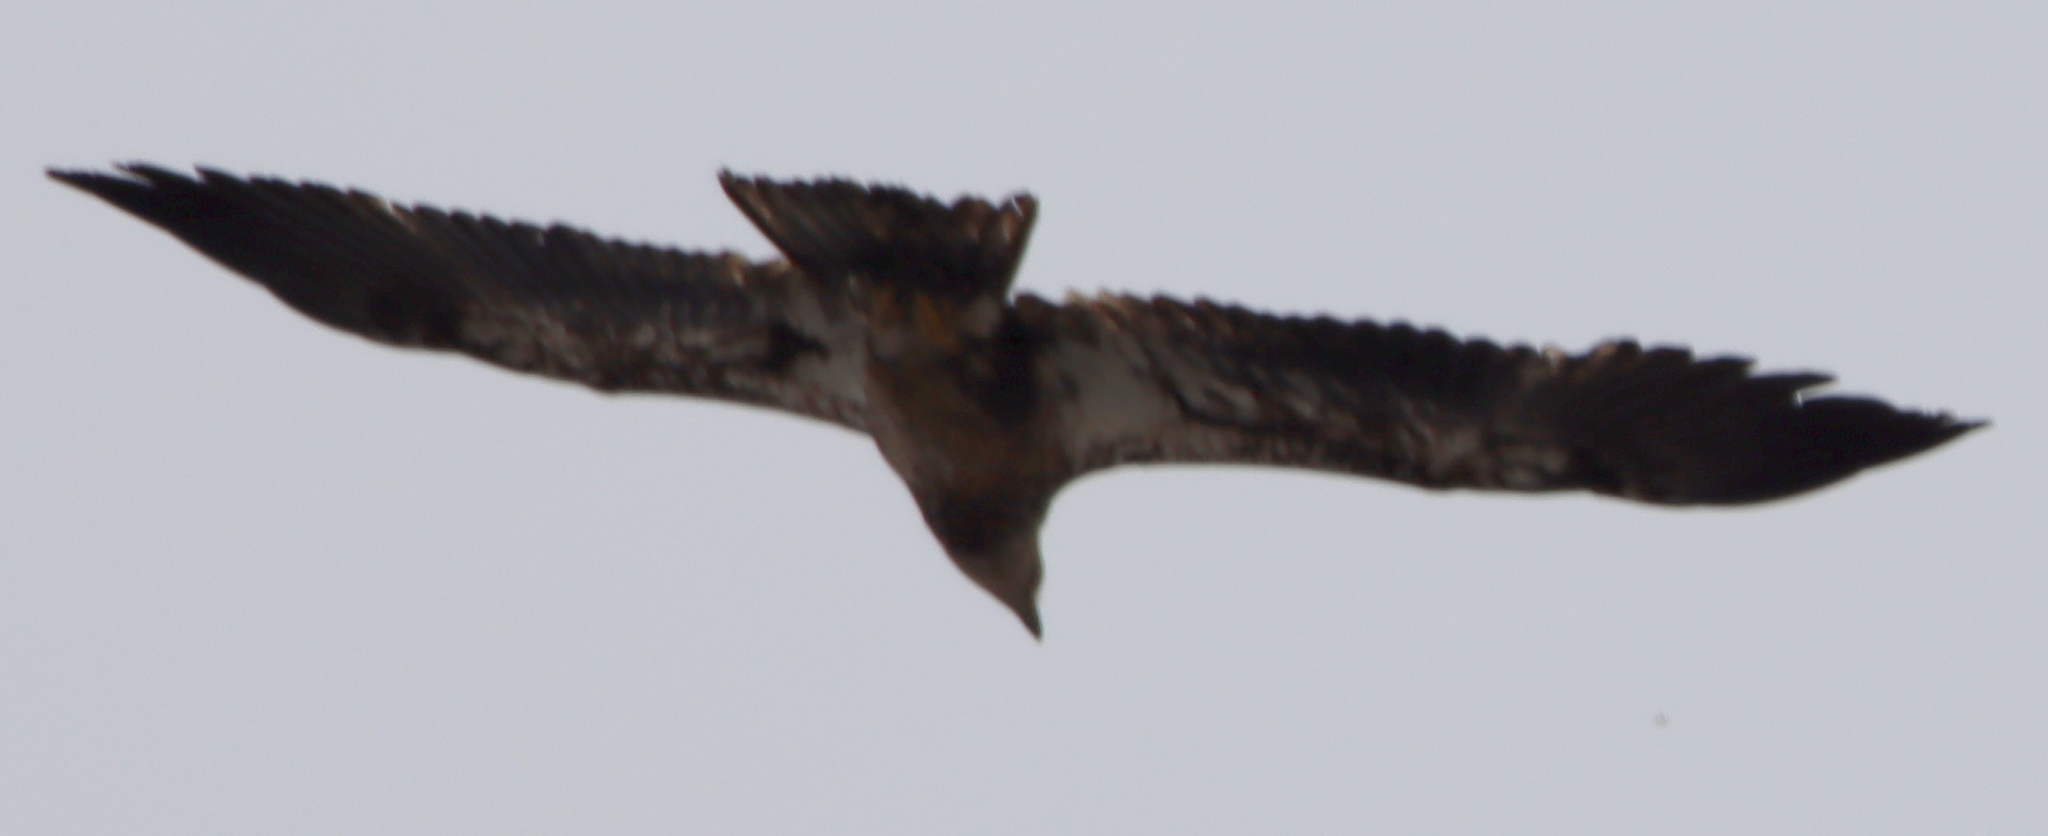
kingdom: Animalia
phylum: Chordata
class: Aves
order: Accipitriformes
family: Accipitridae
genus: Haliaeetus
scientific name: Haliaeetus leucocephalus
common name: Bald eagle
